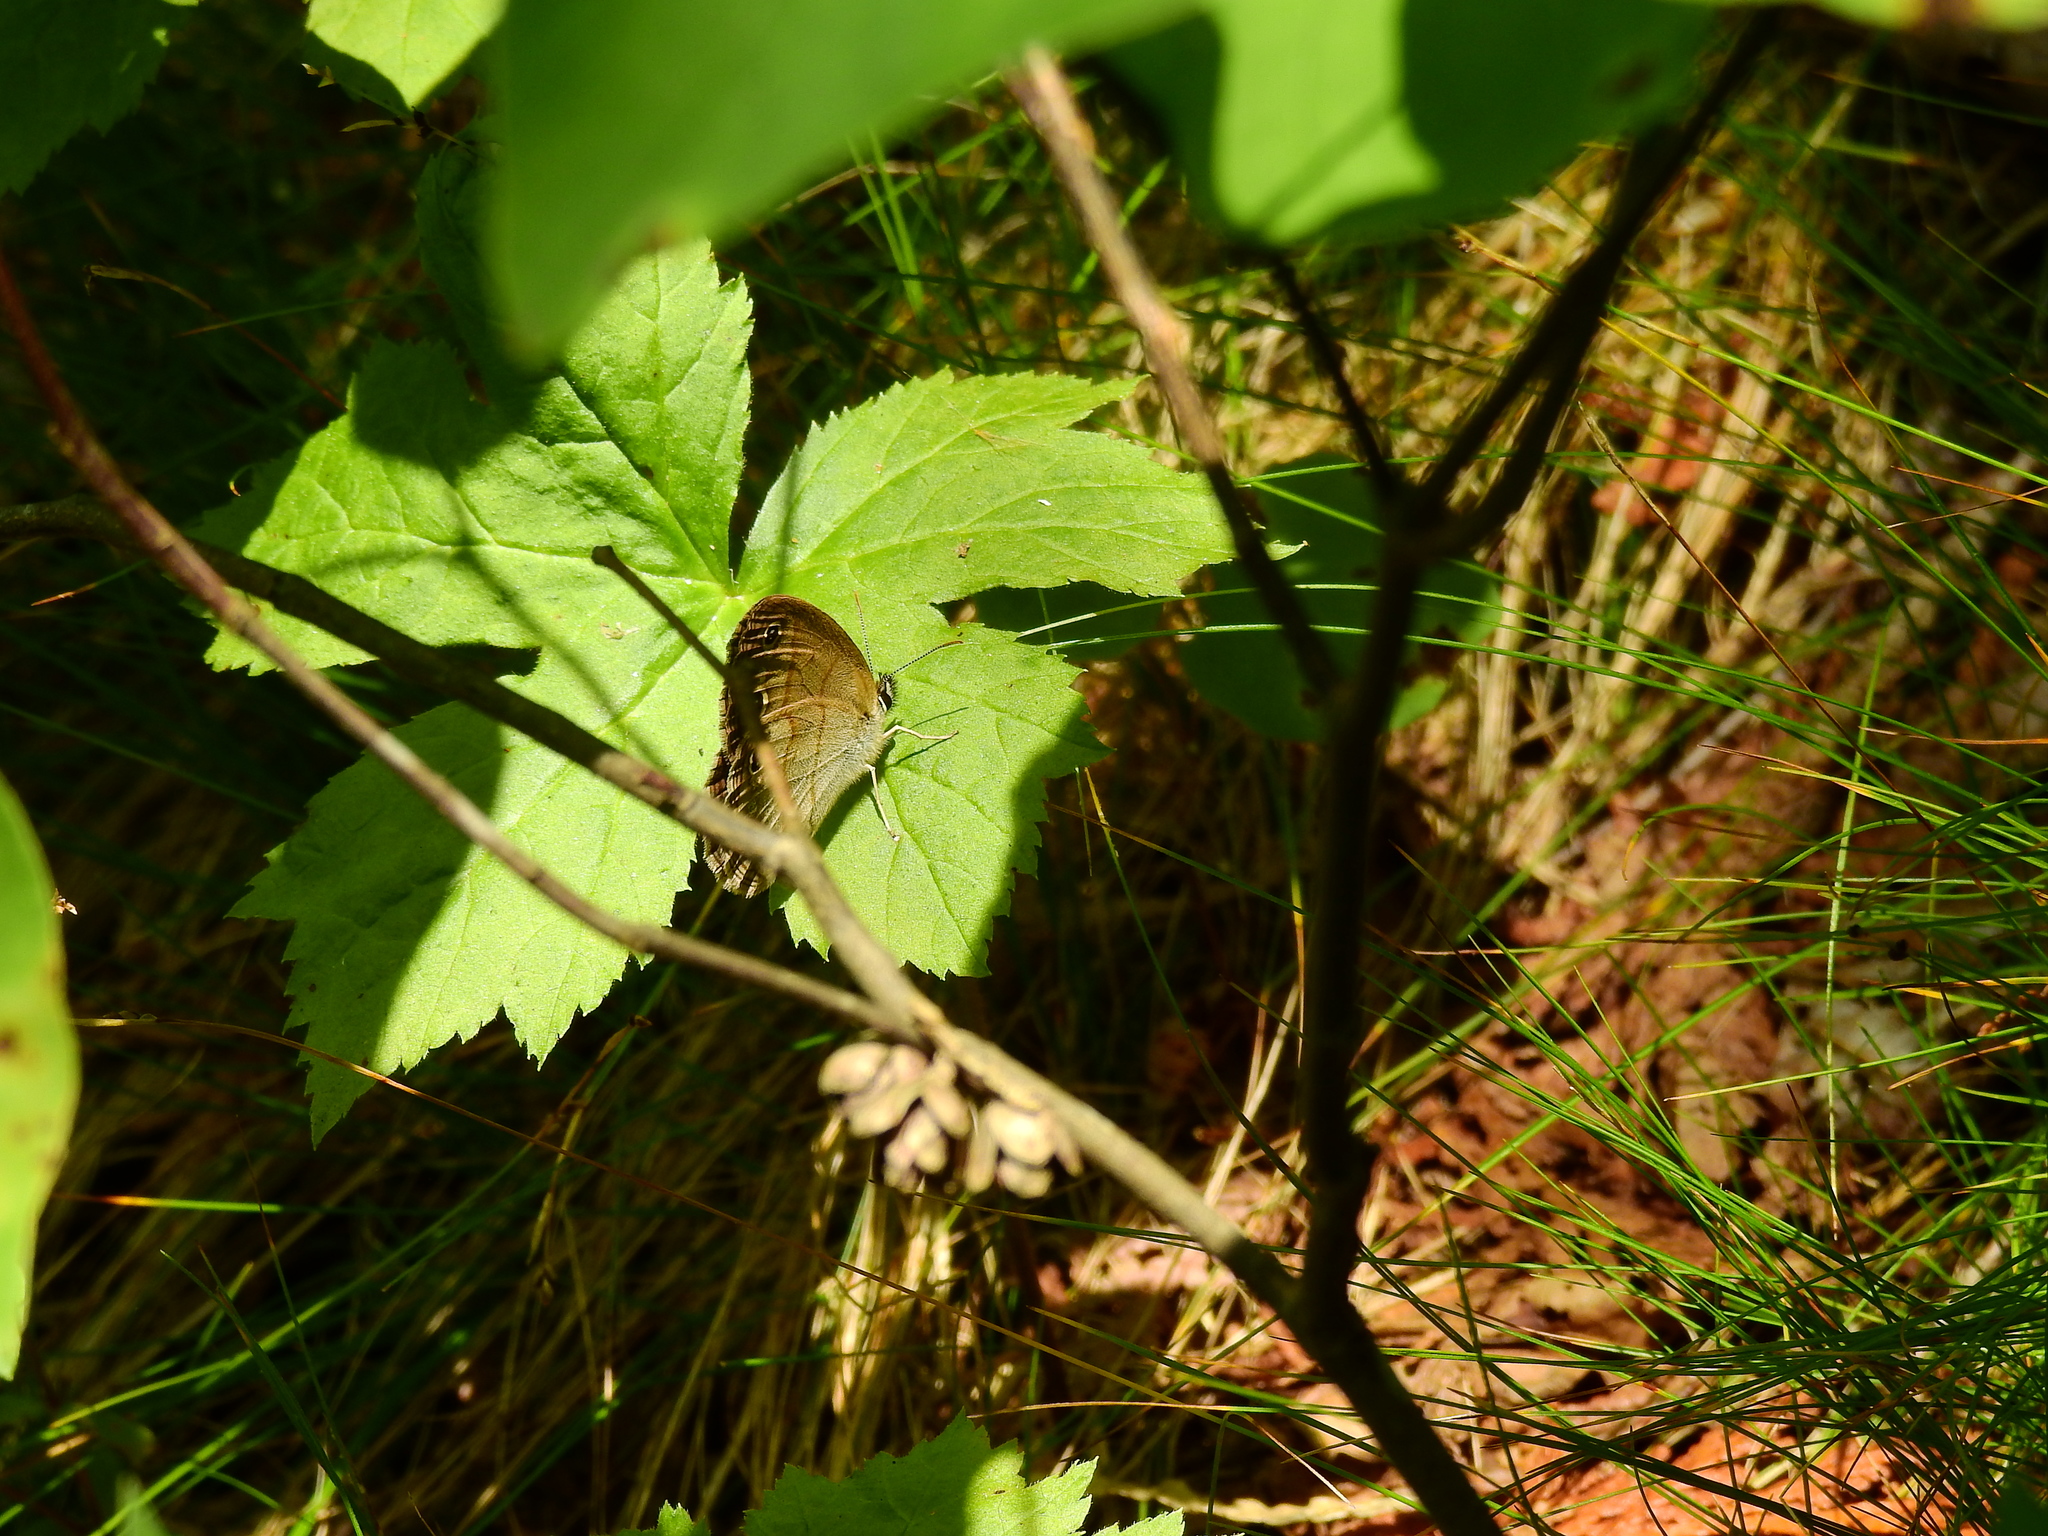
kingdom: Animalia
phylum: Arthropoda
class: Insecta
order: Lepidoptera
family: Nymphalidae
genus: Euptychia
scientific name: Euptychia cymela
